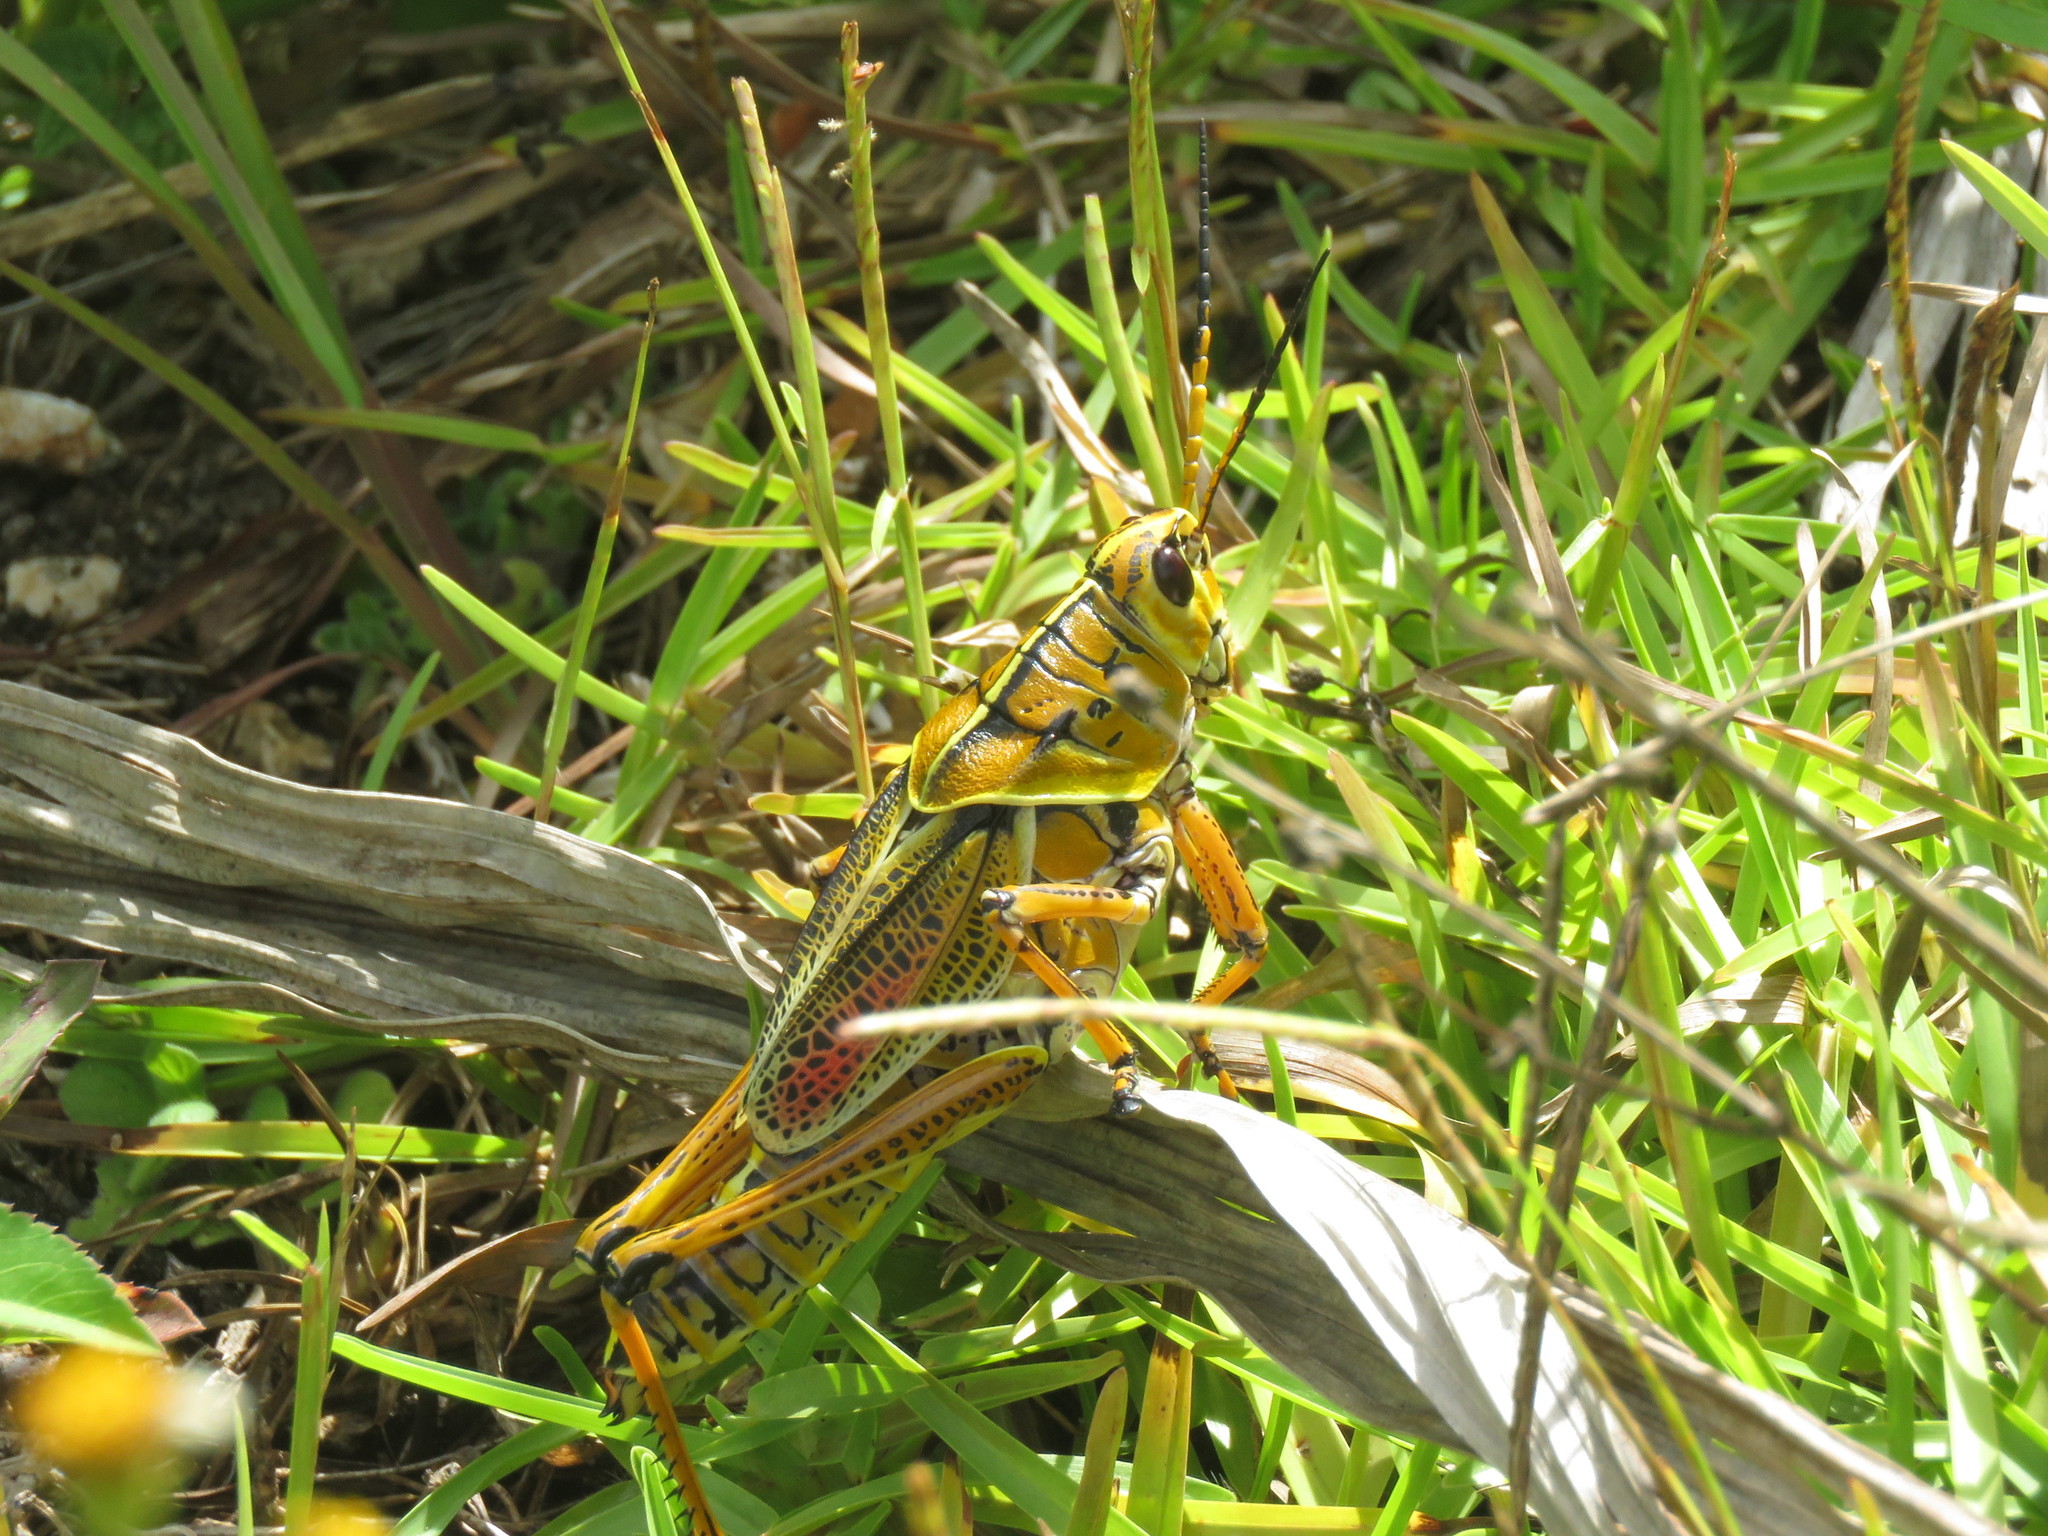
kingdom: Animalia
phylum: Arthropoda
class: Insecta
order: Orthoptera
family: Romaleidae
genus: Romalea
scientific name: Romalea microptera
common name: Eastern lubber grasshopper
